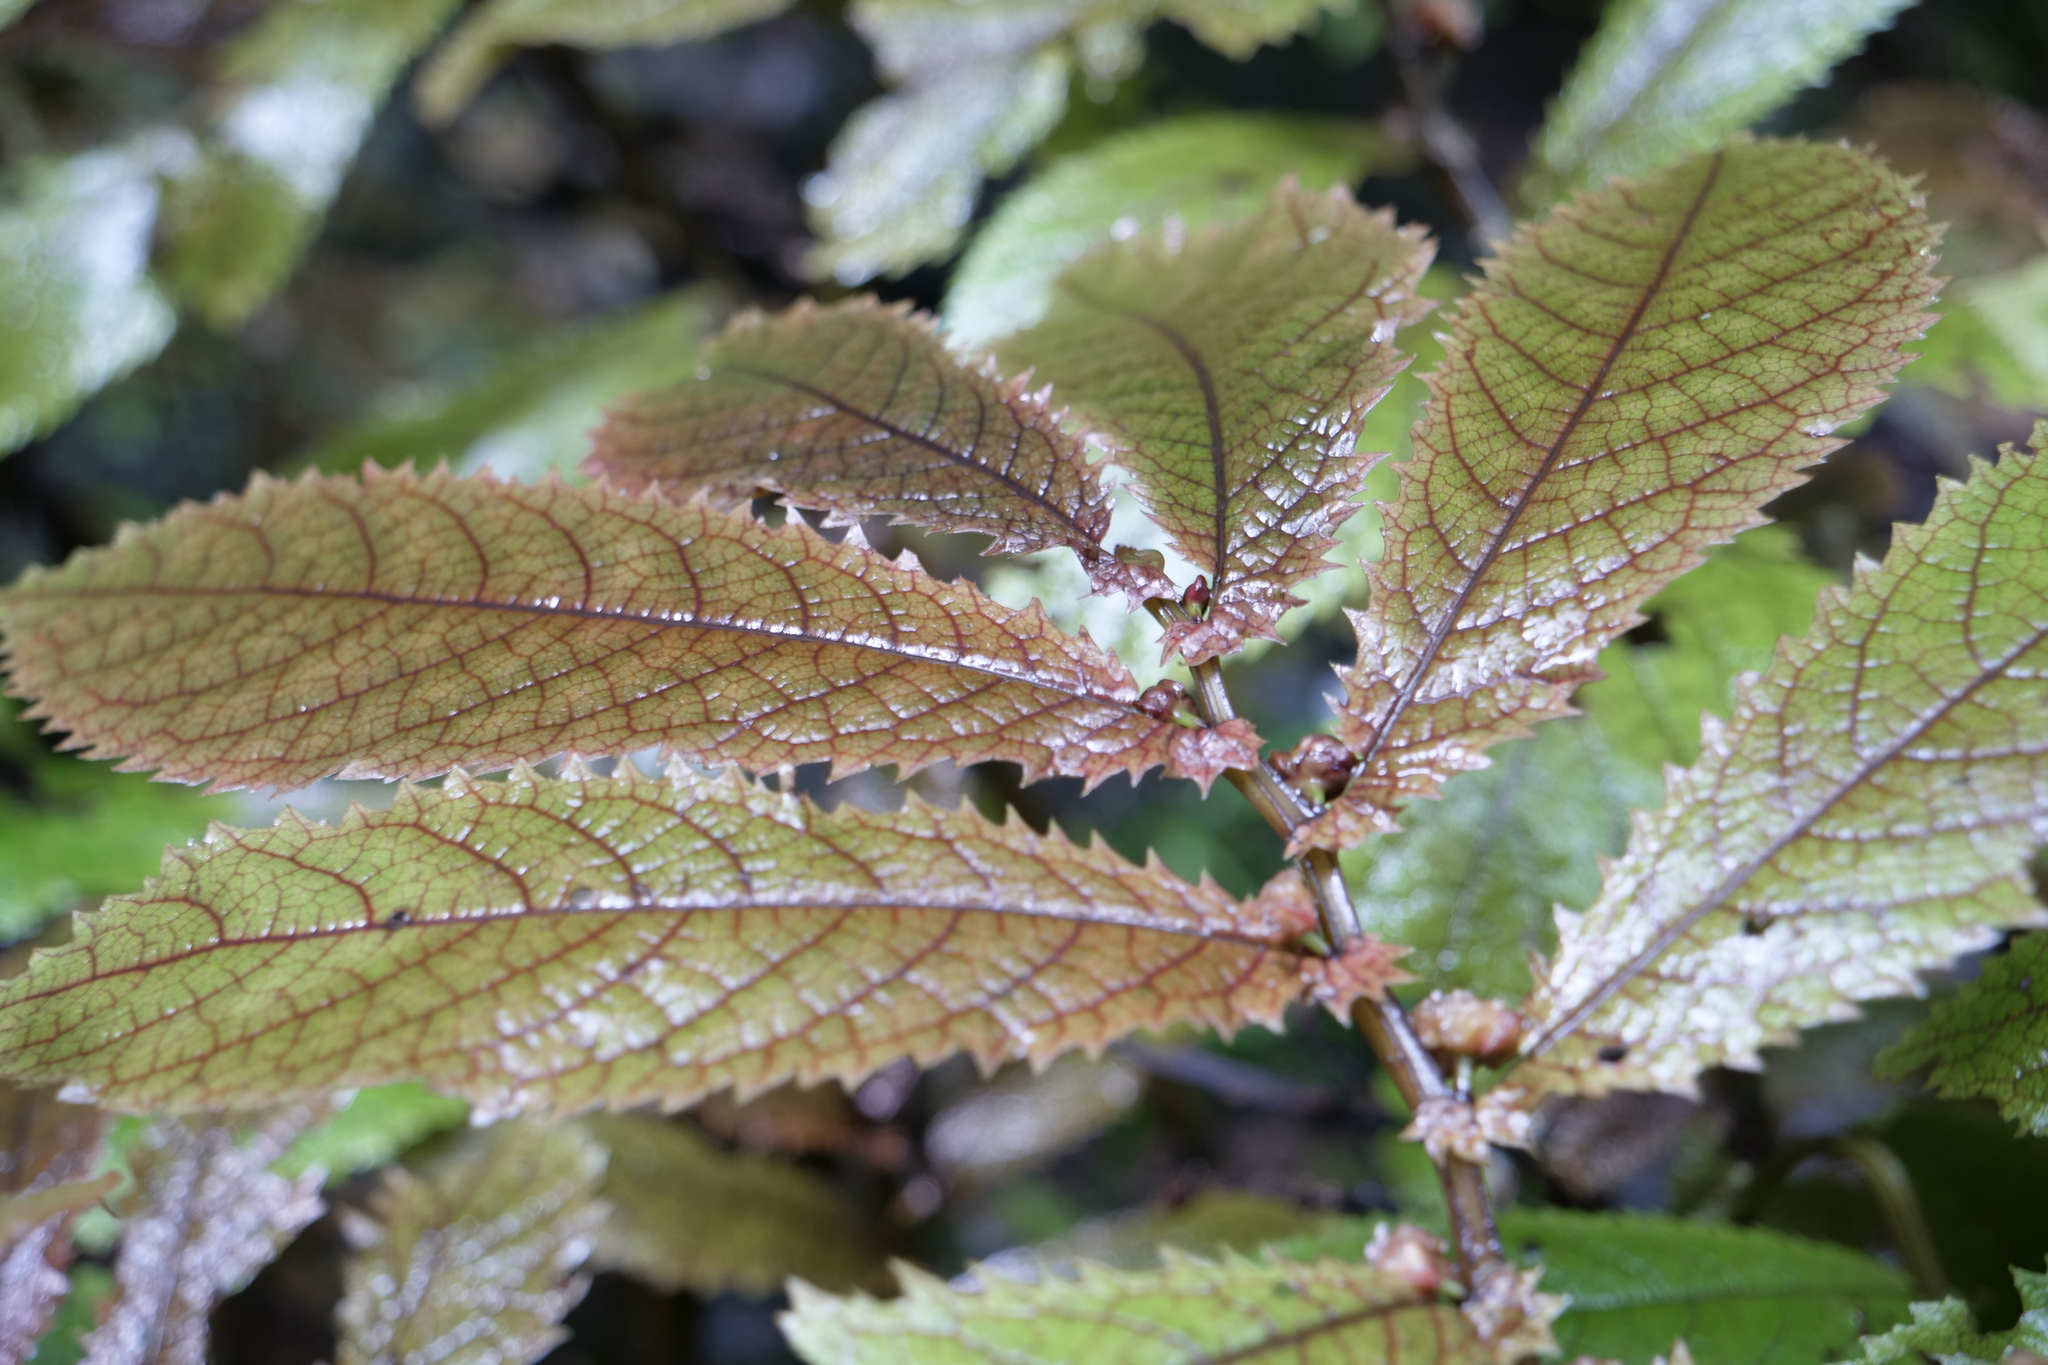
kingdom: Plantae
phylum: Tracheophyta
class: Magnoliopsida
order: Rosales
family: Urticaceae
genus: Elatostema
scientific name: Elatostema rugosum
